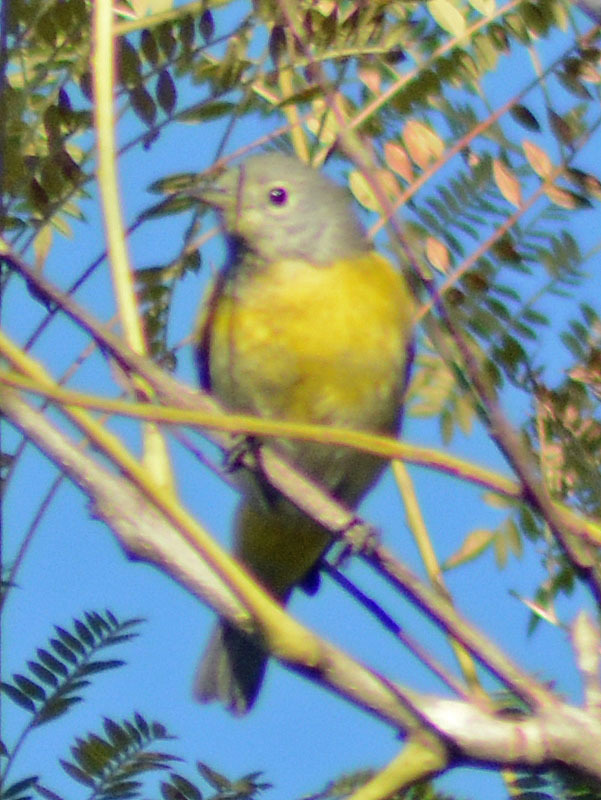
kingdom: Animalia
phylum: Chordata
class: Aves
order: Passeriformes
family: Parulidae
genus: Leiothlypis
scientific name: Leiothlypis ruficapilla
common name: Nashville warbler
